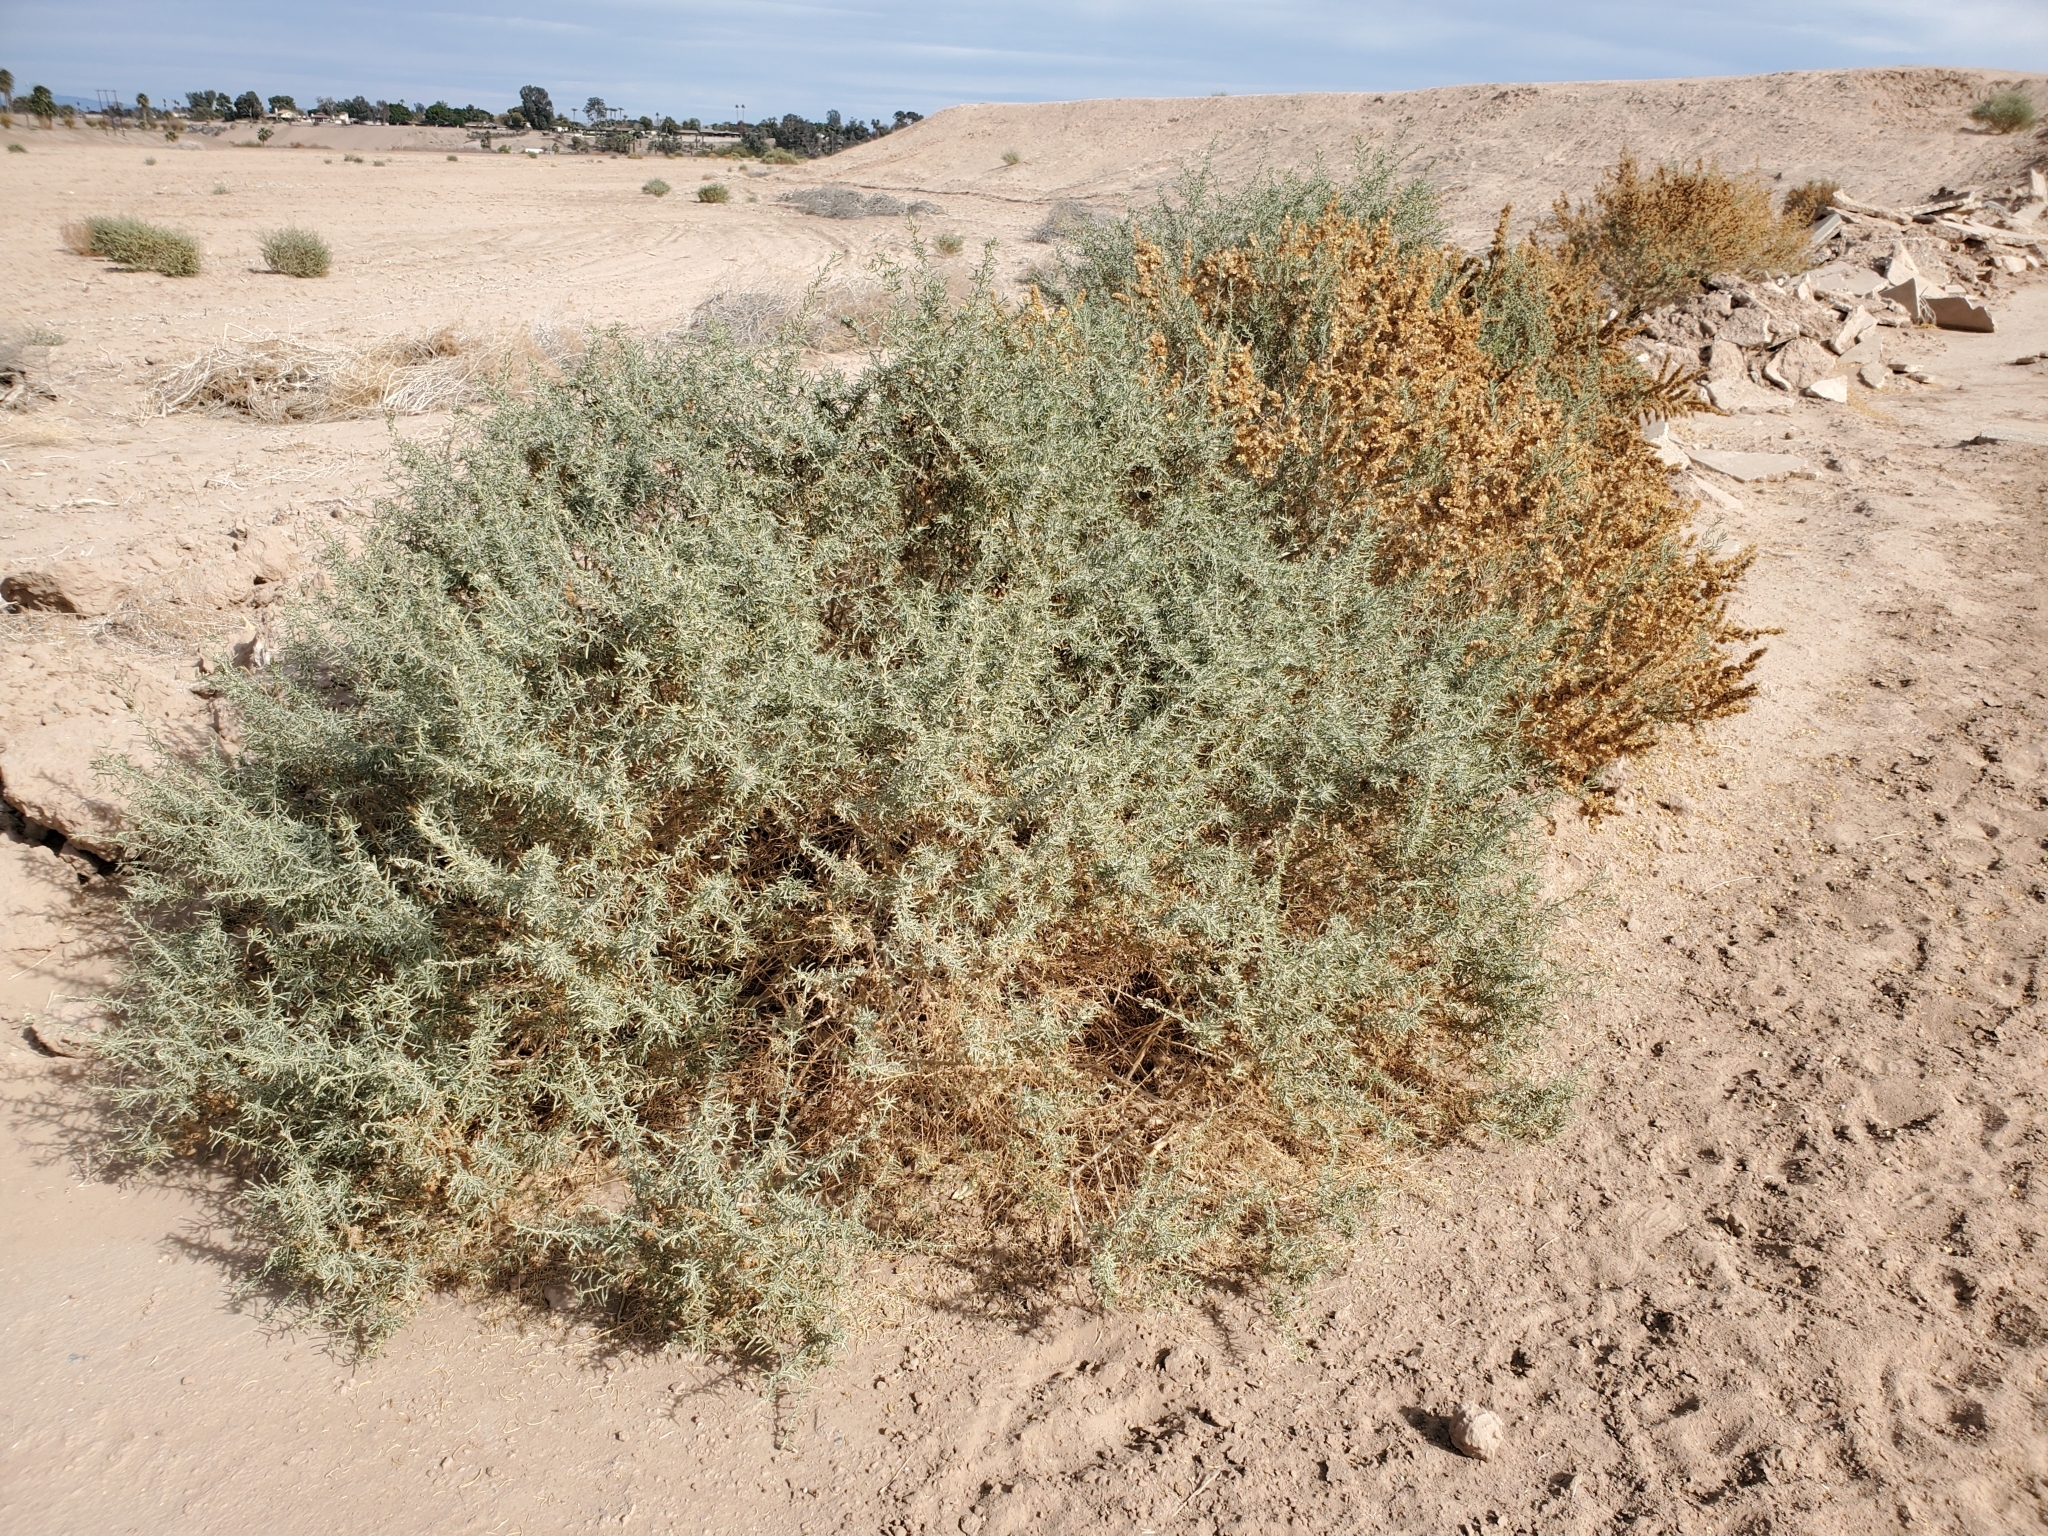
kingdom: Plantae
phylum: Tracheophyta
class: Magnoliopsida
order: Caryophyllales
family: Amaranthaceae
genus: Atriplex
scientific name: Atriplex canescens
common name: Four-wing saltbush
